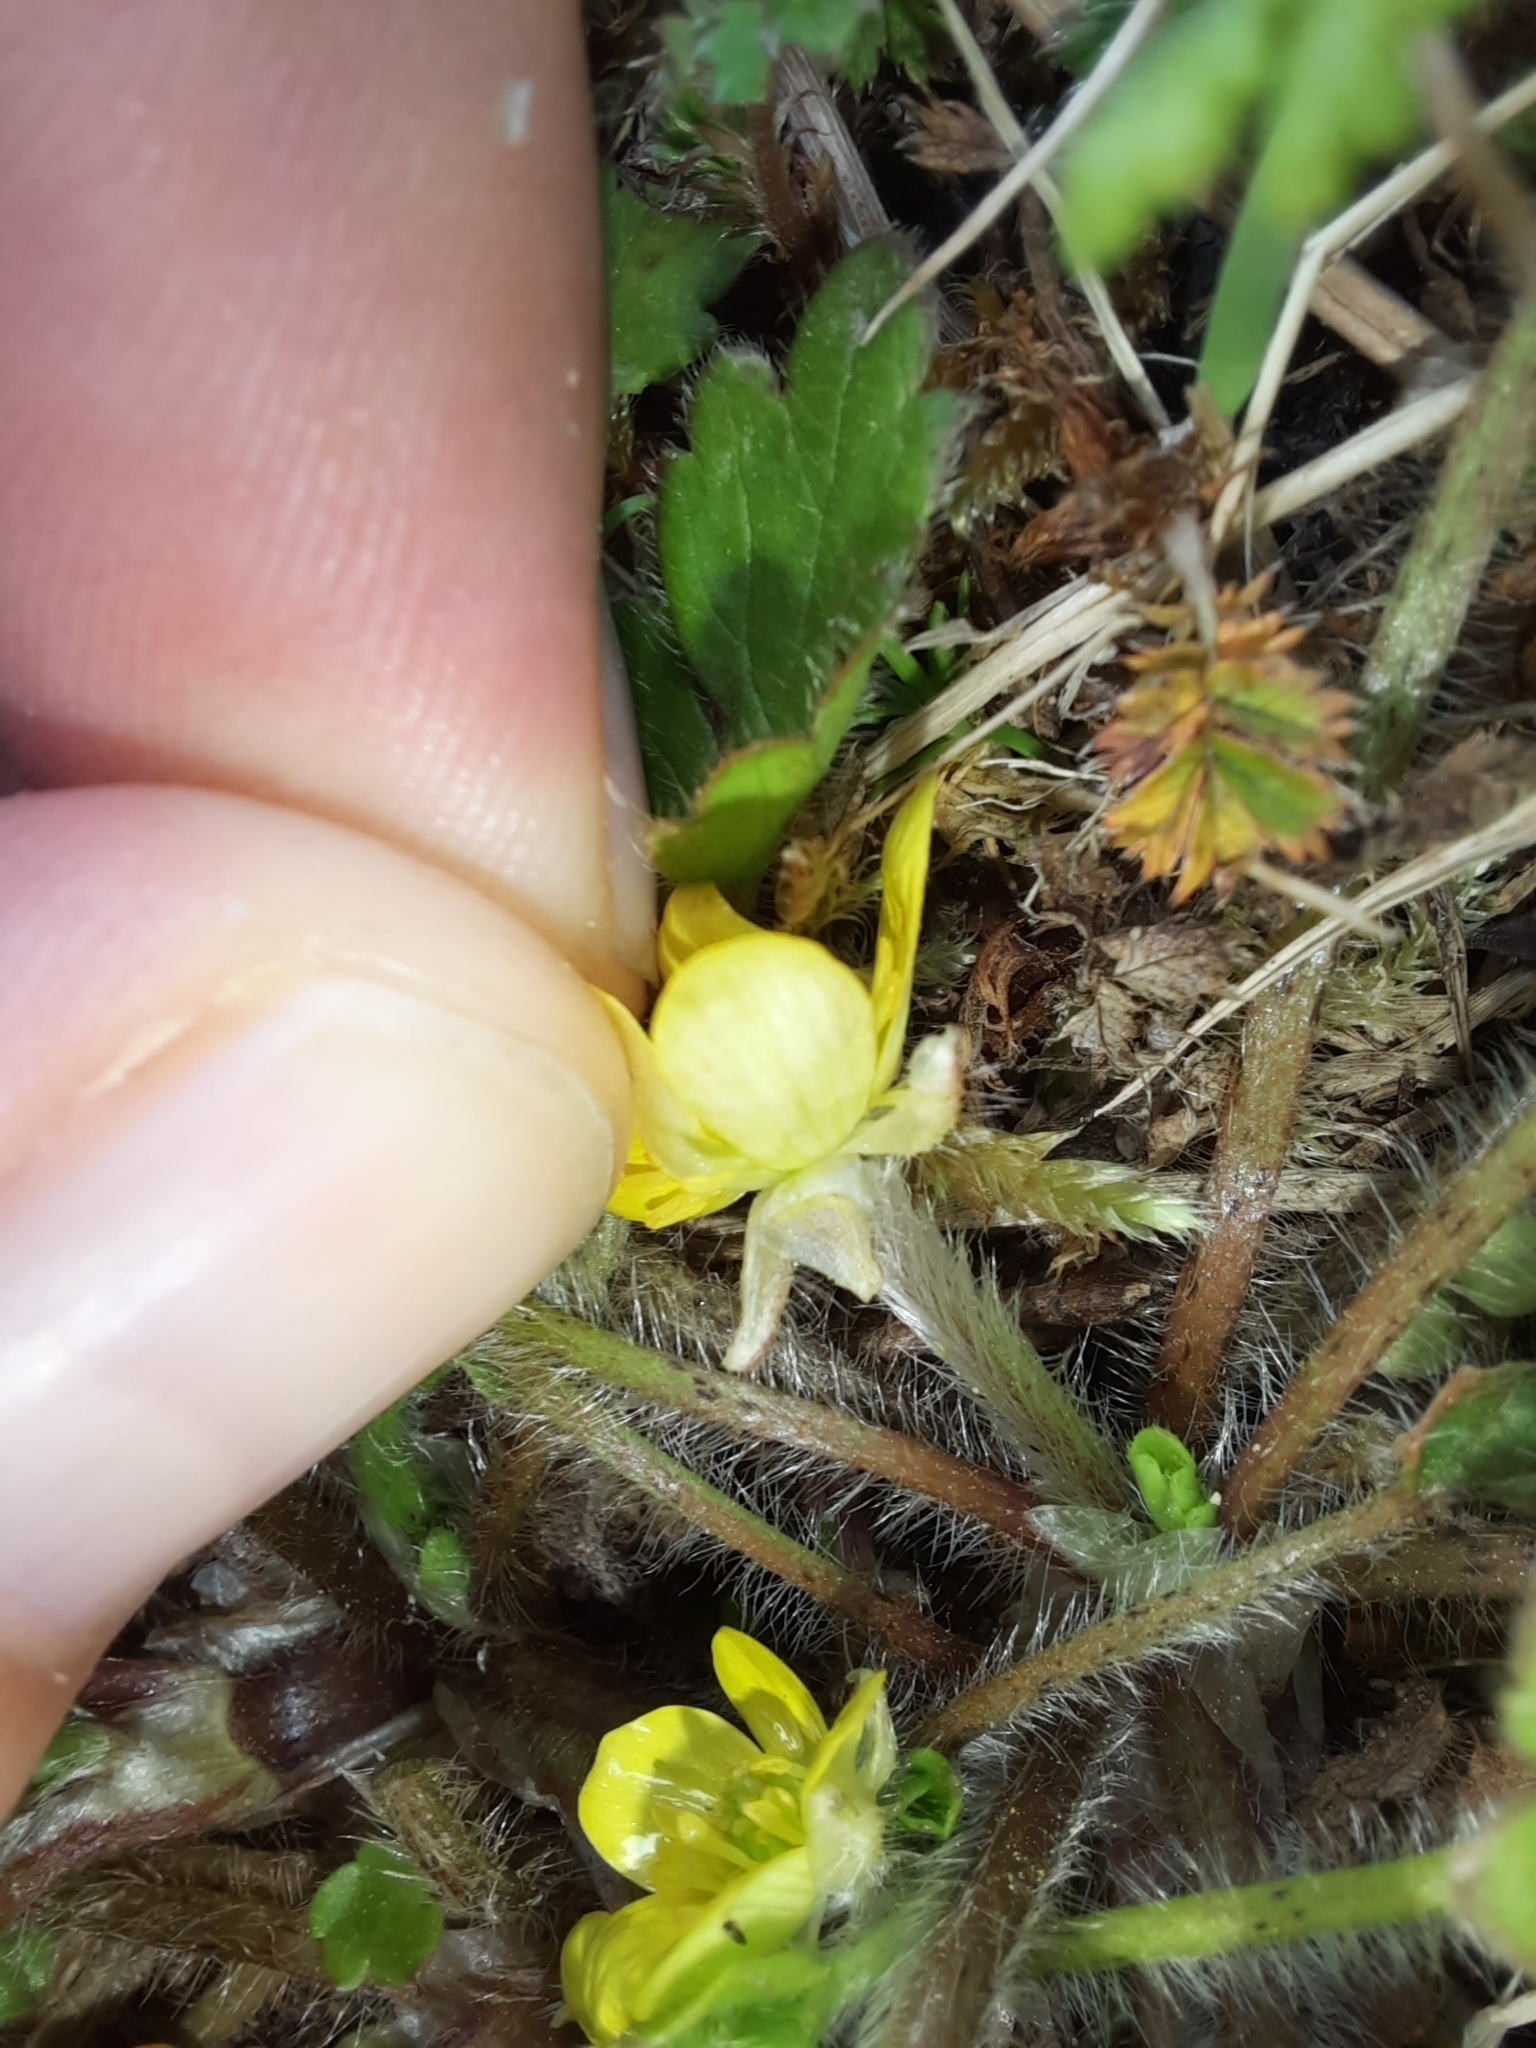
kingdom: Plantae
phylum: Tracheophyta
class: Magnoliopsida
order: Ranunculales
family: Ranunculaceae
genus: Ranunculus
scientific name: Ranunculus reflexus
